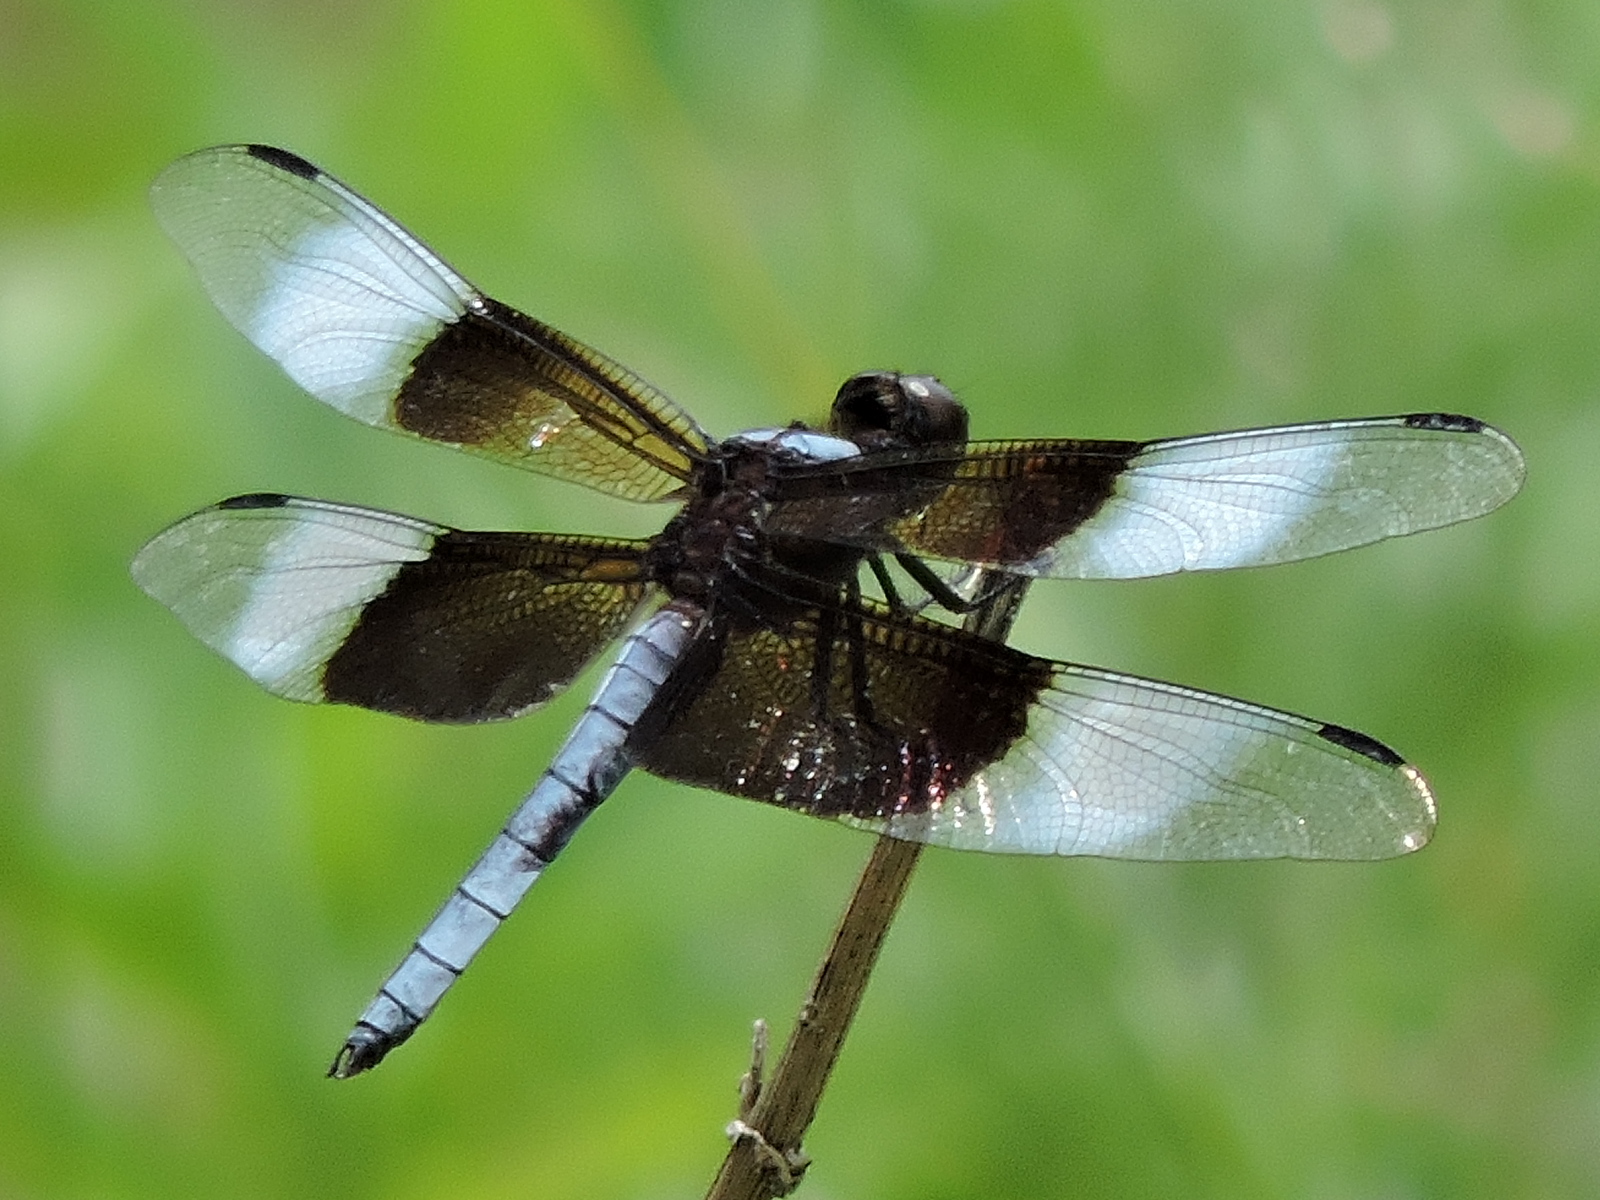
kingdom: Animalia
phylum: Arthropoda
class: Insecta
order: Odonata
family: Libellulidae
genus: Libellula
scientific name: Libellula luctuosa
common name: Widow skimmer
